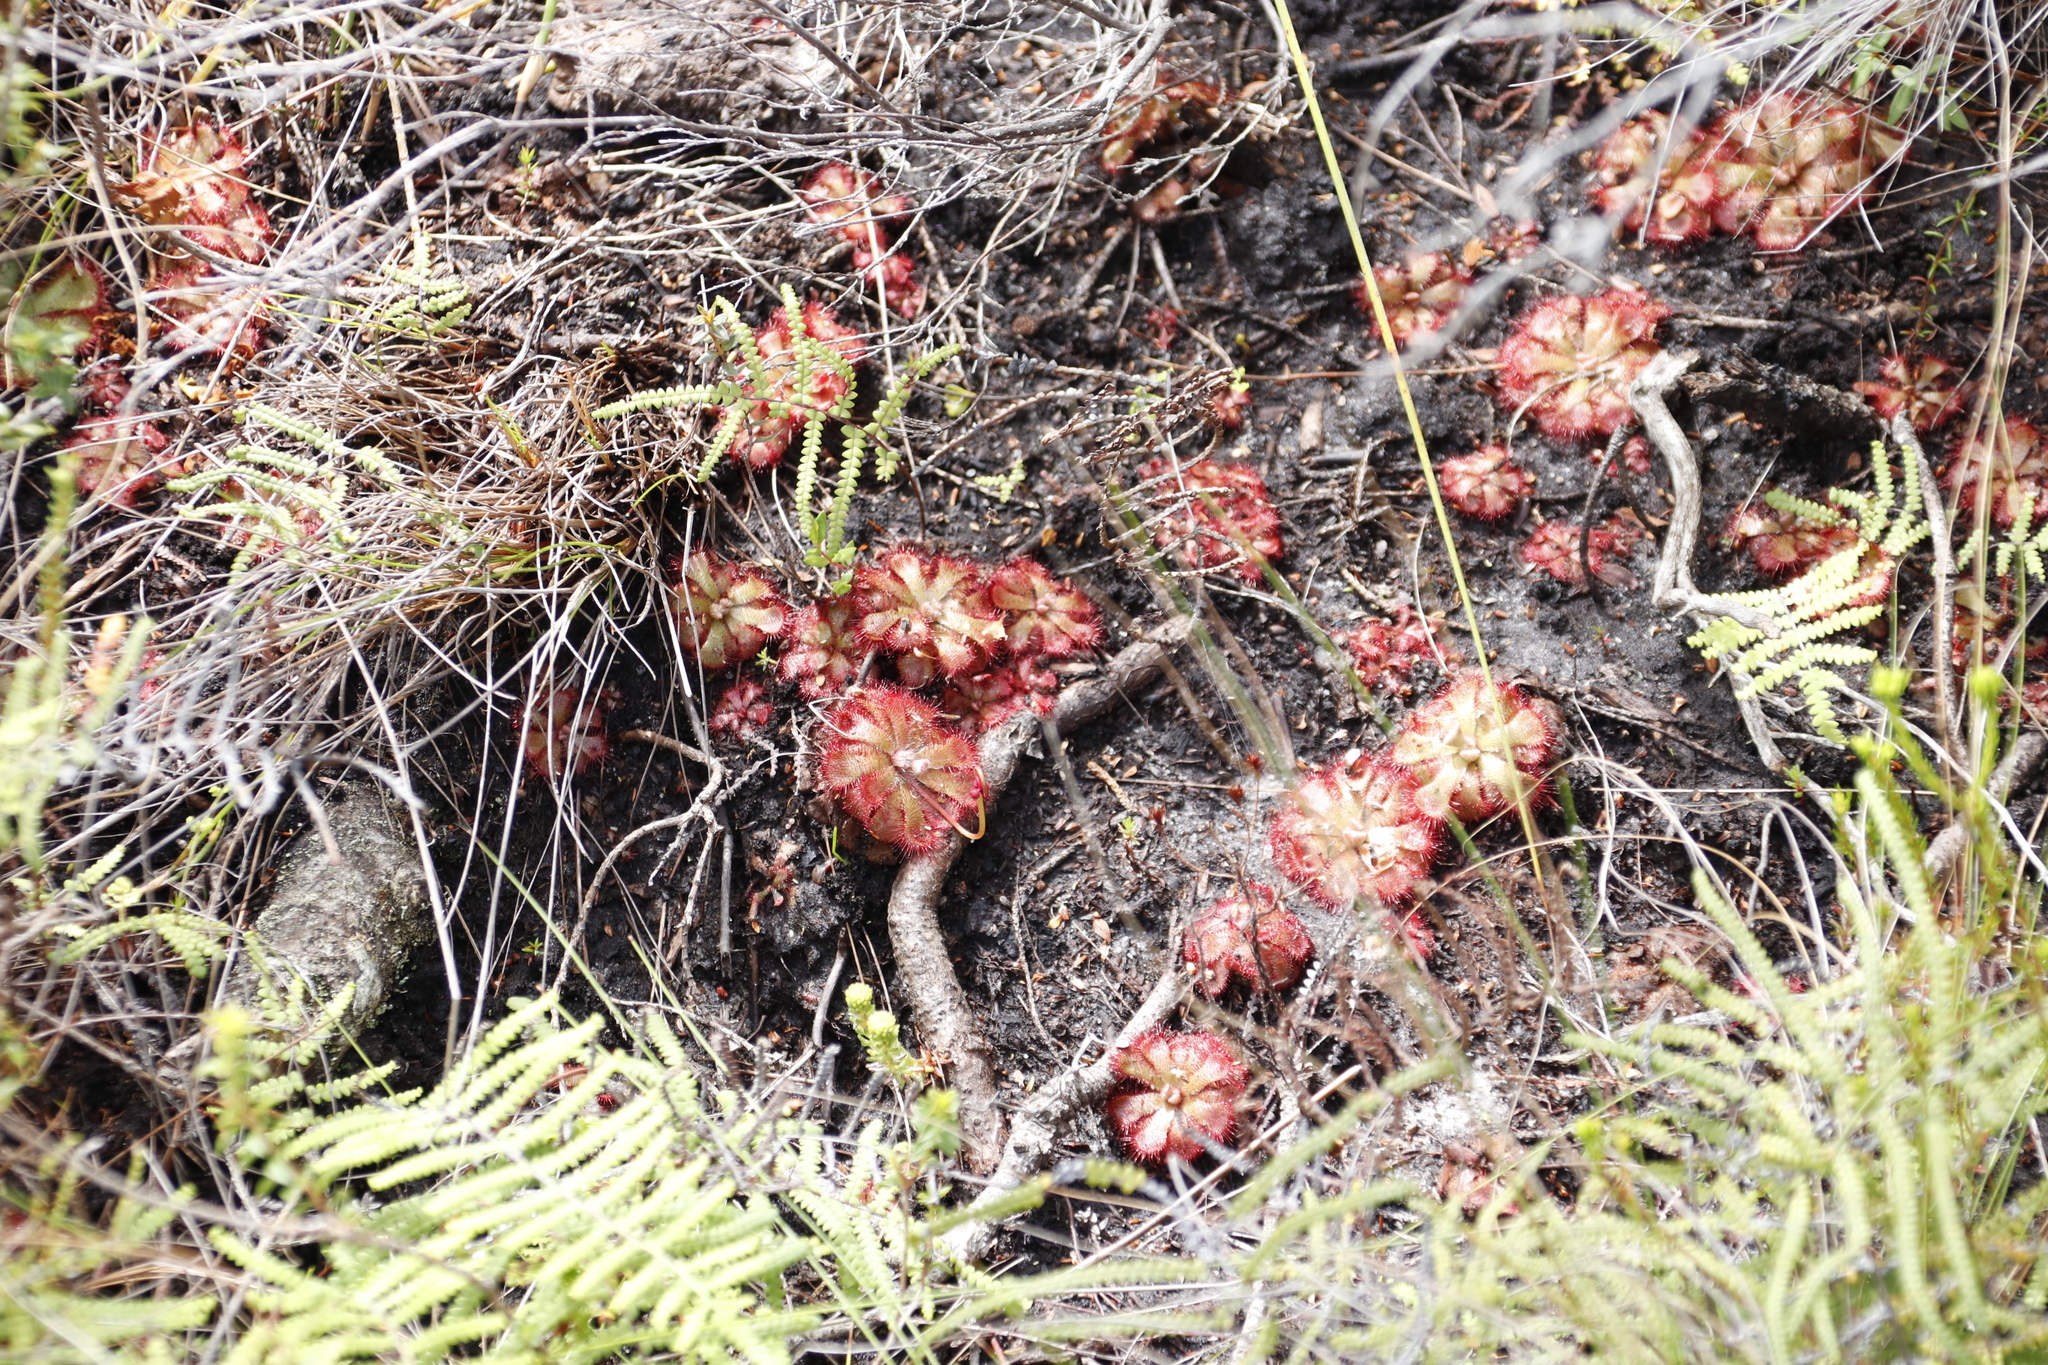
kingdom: Plantae
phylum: Tracheophyta
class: Magnoliopsida
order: Caryophyllales
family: Droseraceae
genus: Drosera
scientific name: Drosera aliciae
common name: Alice sundew
